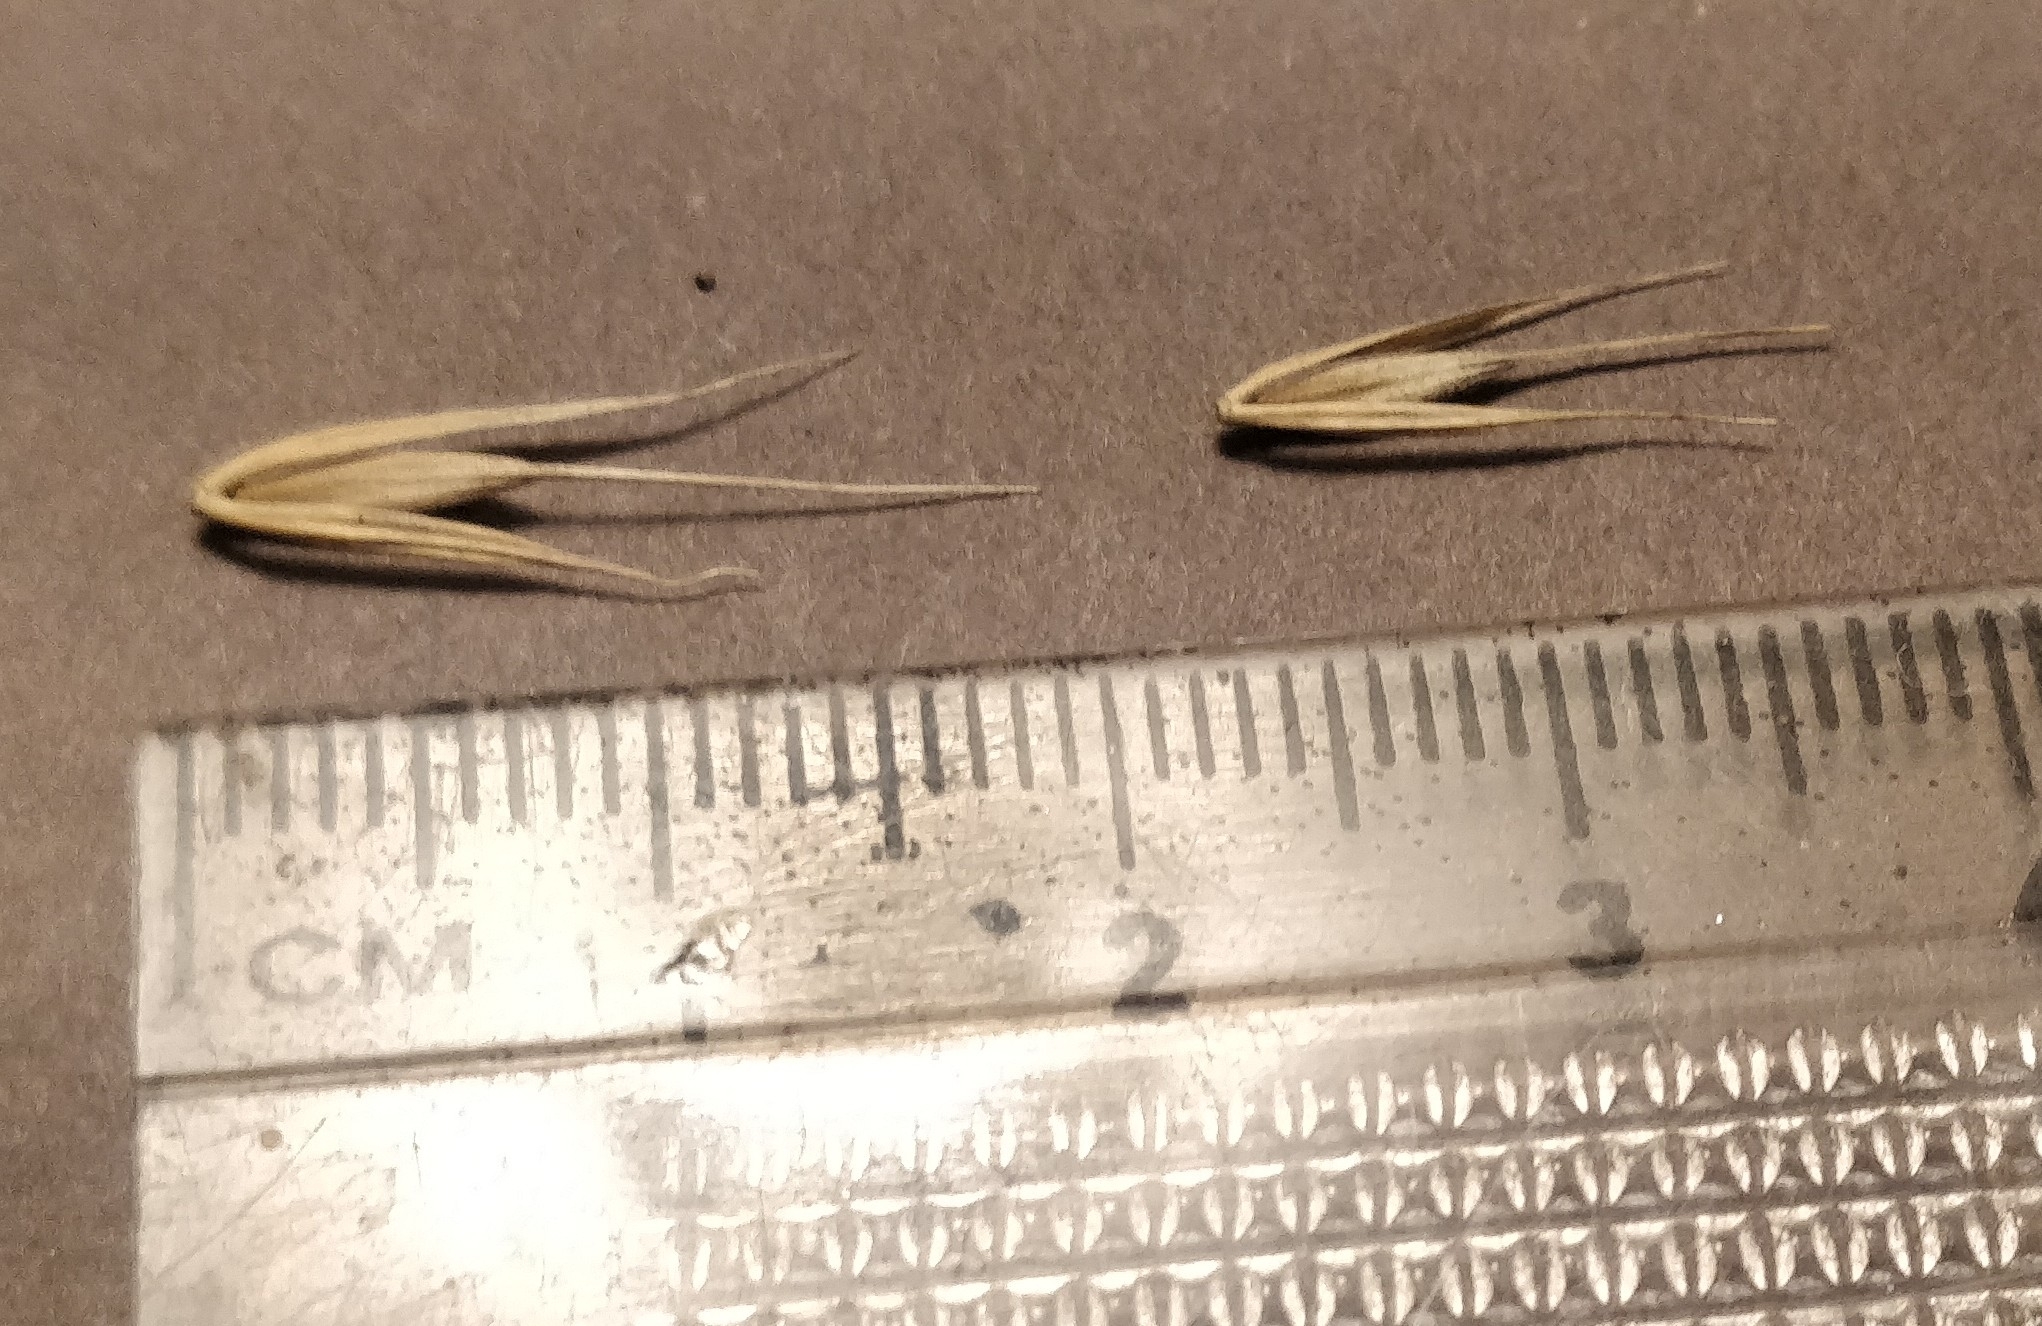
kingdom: Plantae
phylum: Tracheophyta
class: Liliopsida
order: Poales
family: Poaceae
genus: Elymus
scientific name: Elymus riparius
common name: Eastern riverbank wild rye
